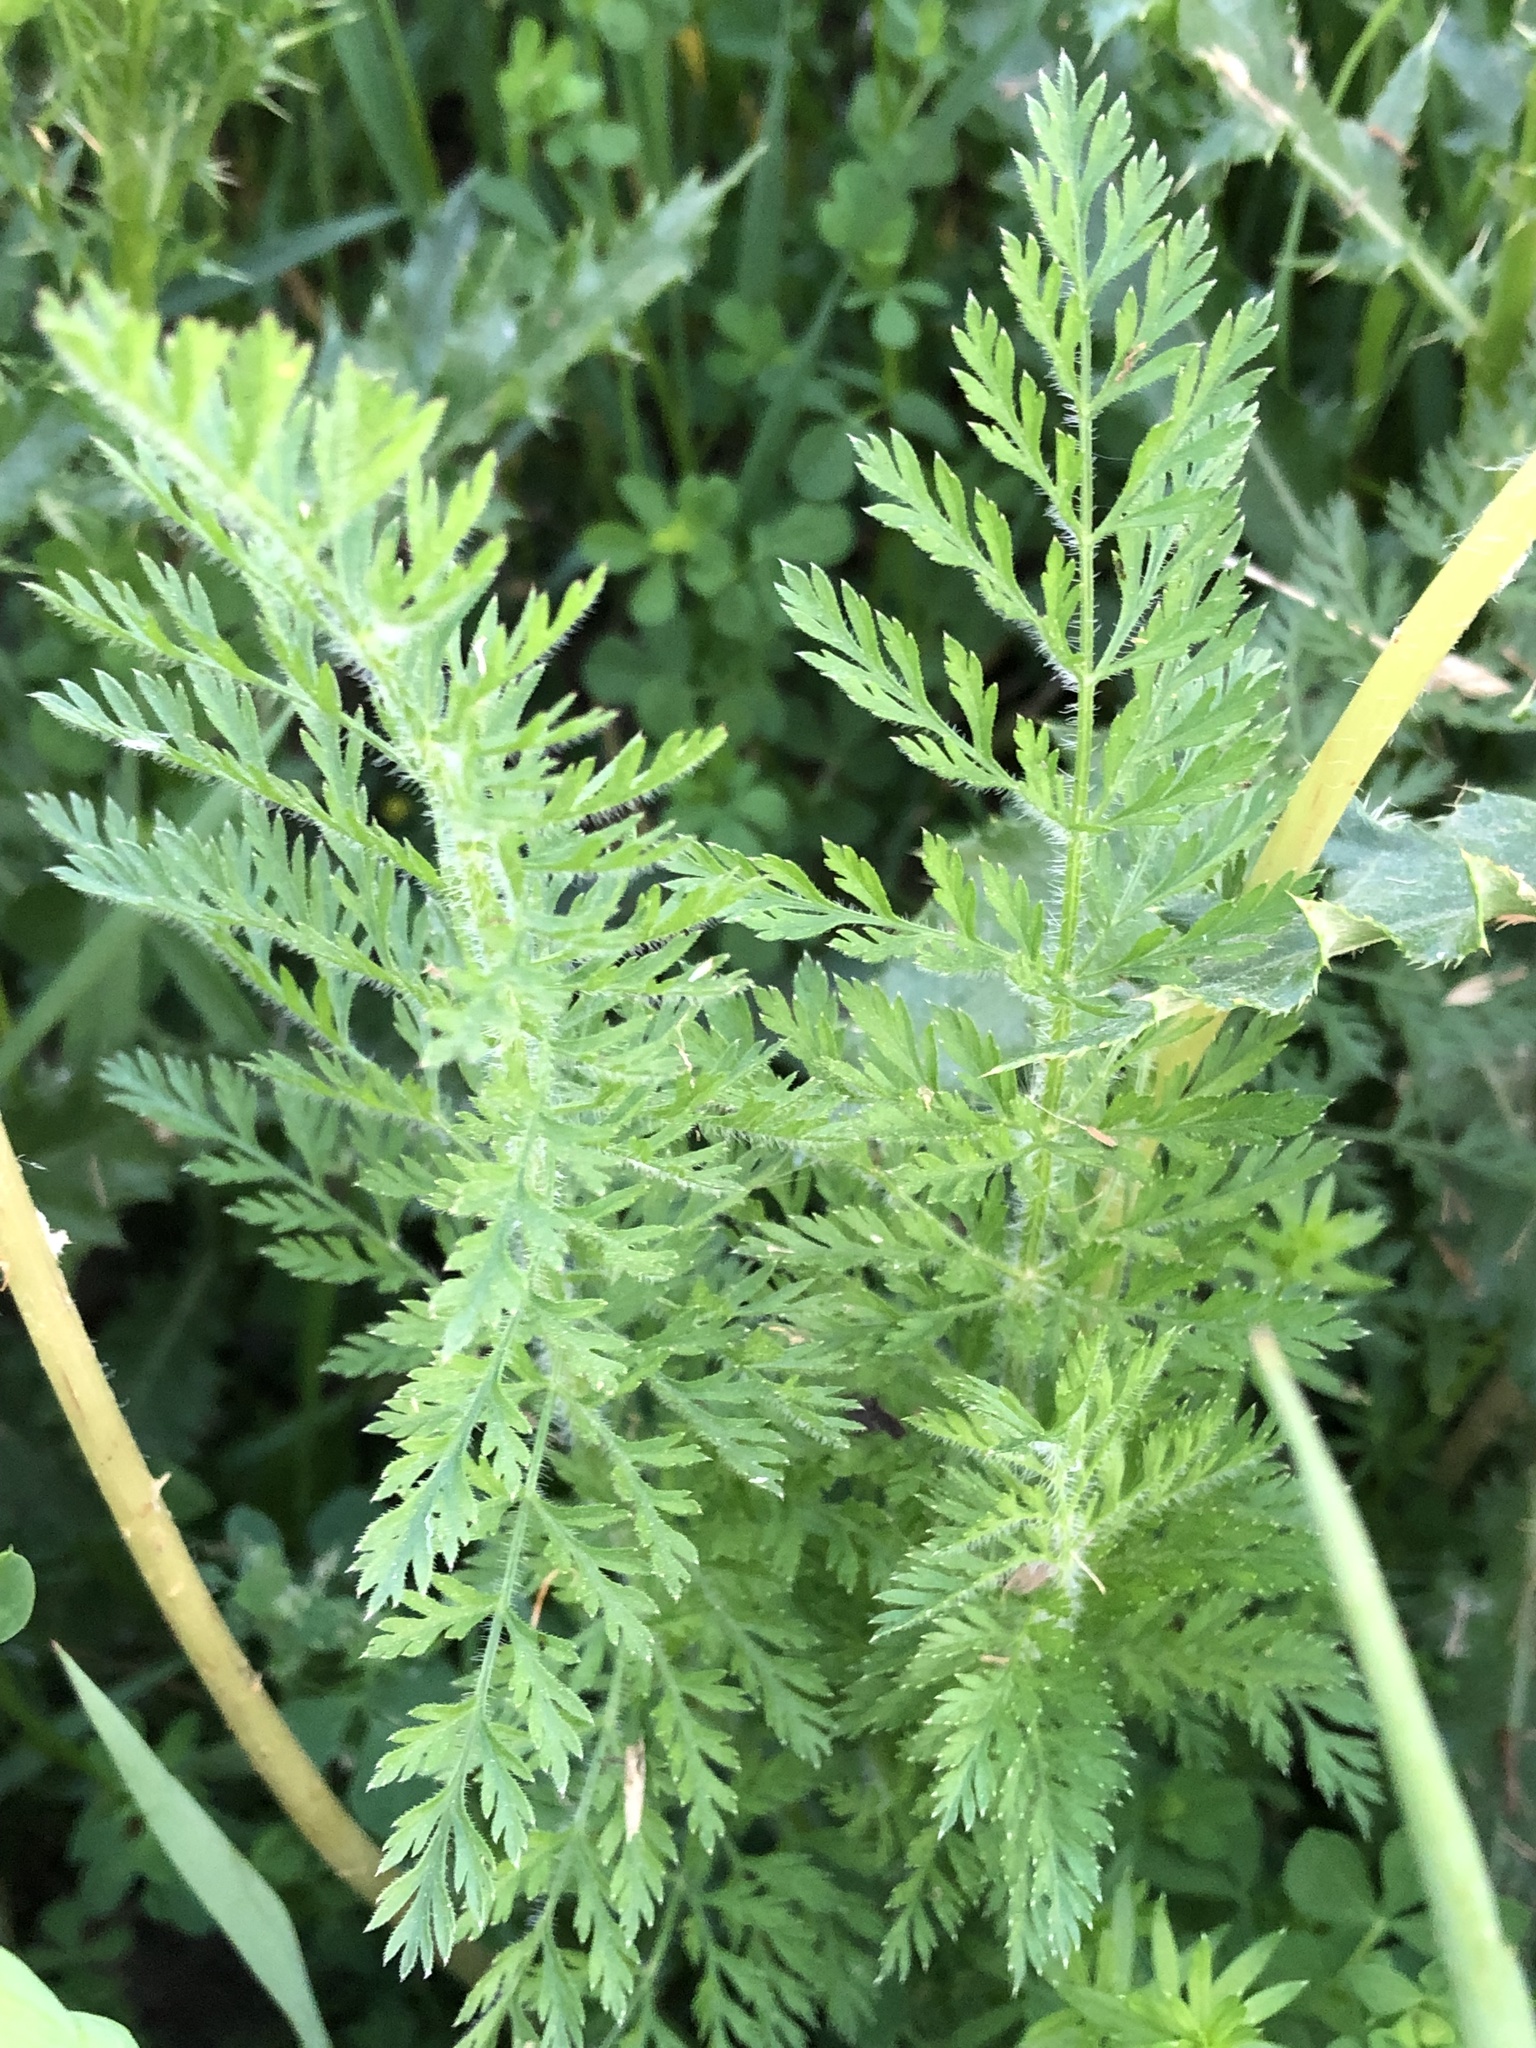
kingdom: Plantae
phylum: Tracheophyta
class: Magnoliopsida
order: Apiales
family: Apiaceae
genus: Daucus
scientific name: Daucus carota
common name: Wild carrot
